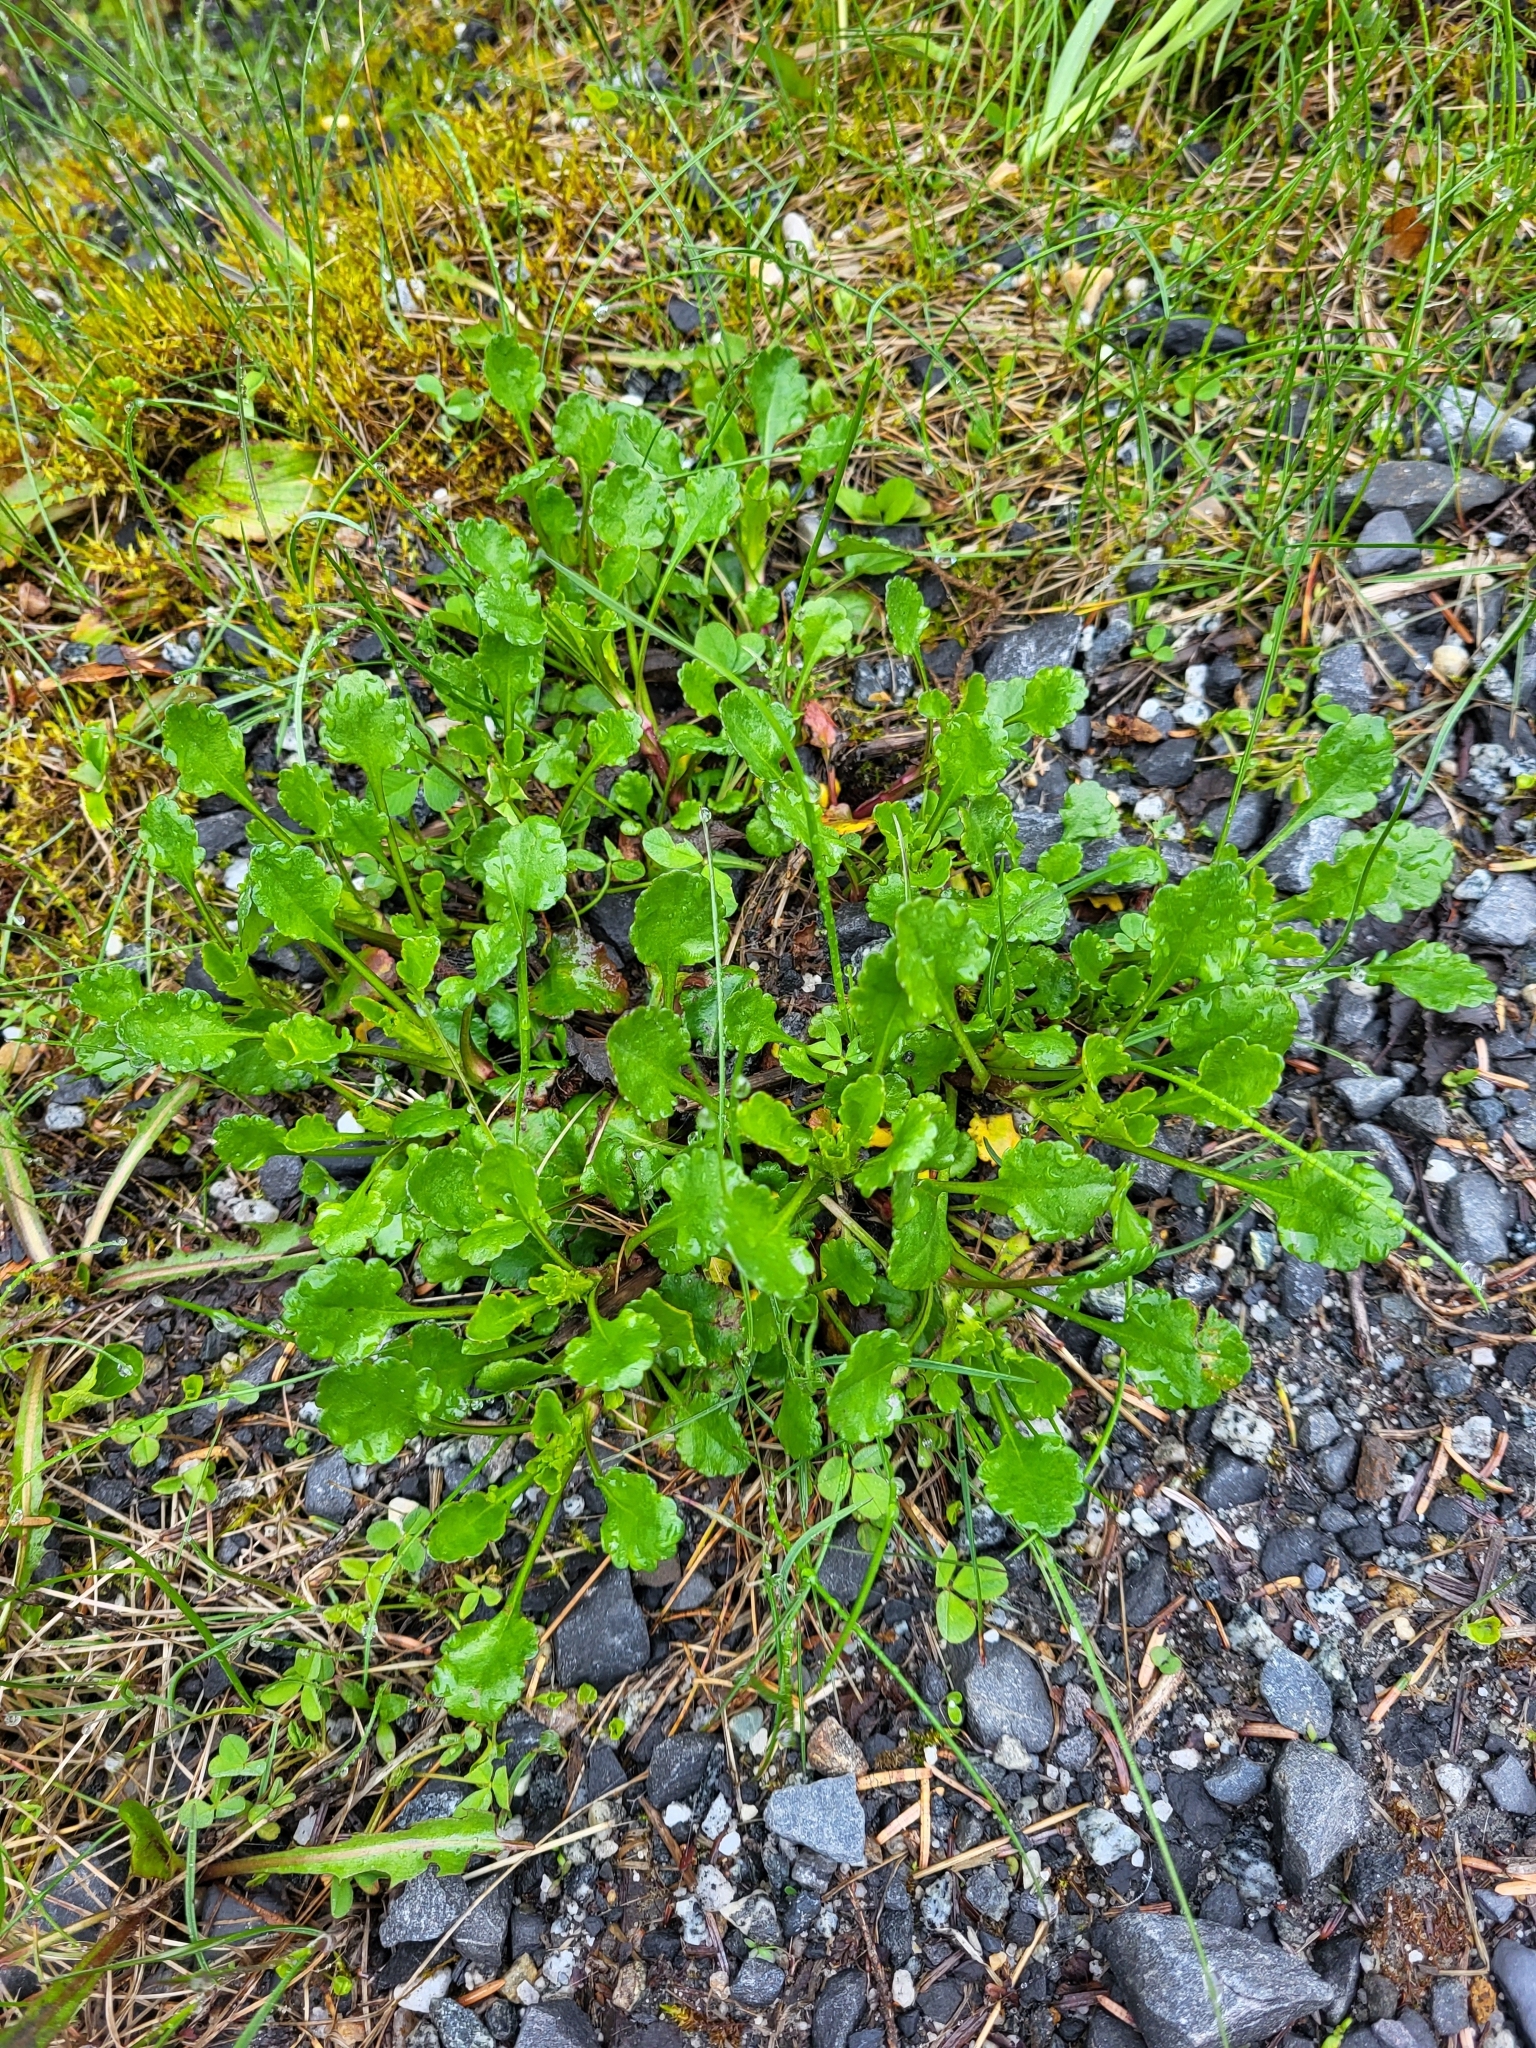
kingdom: Plantae
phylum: Tracheophyta
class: Magnoliopsida
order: Asterales
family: Asteraceae
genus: Leucanthemum
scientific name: Leucanthemum vulgare
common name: Oxeye daisy
